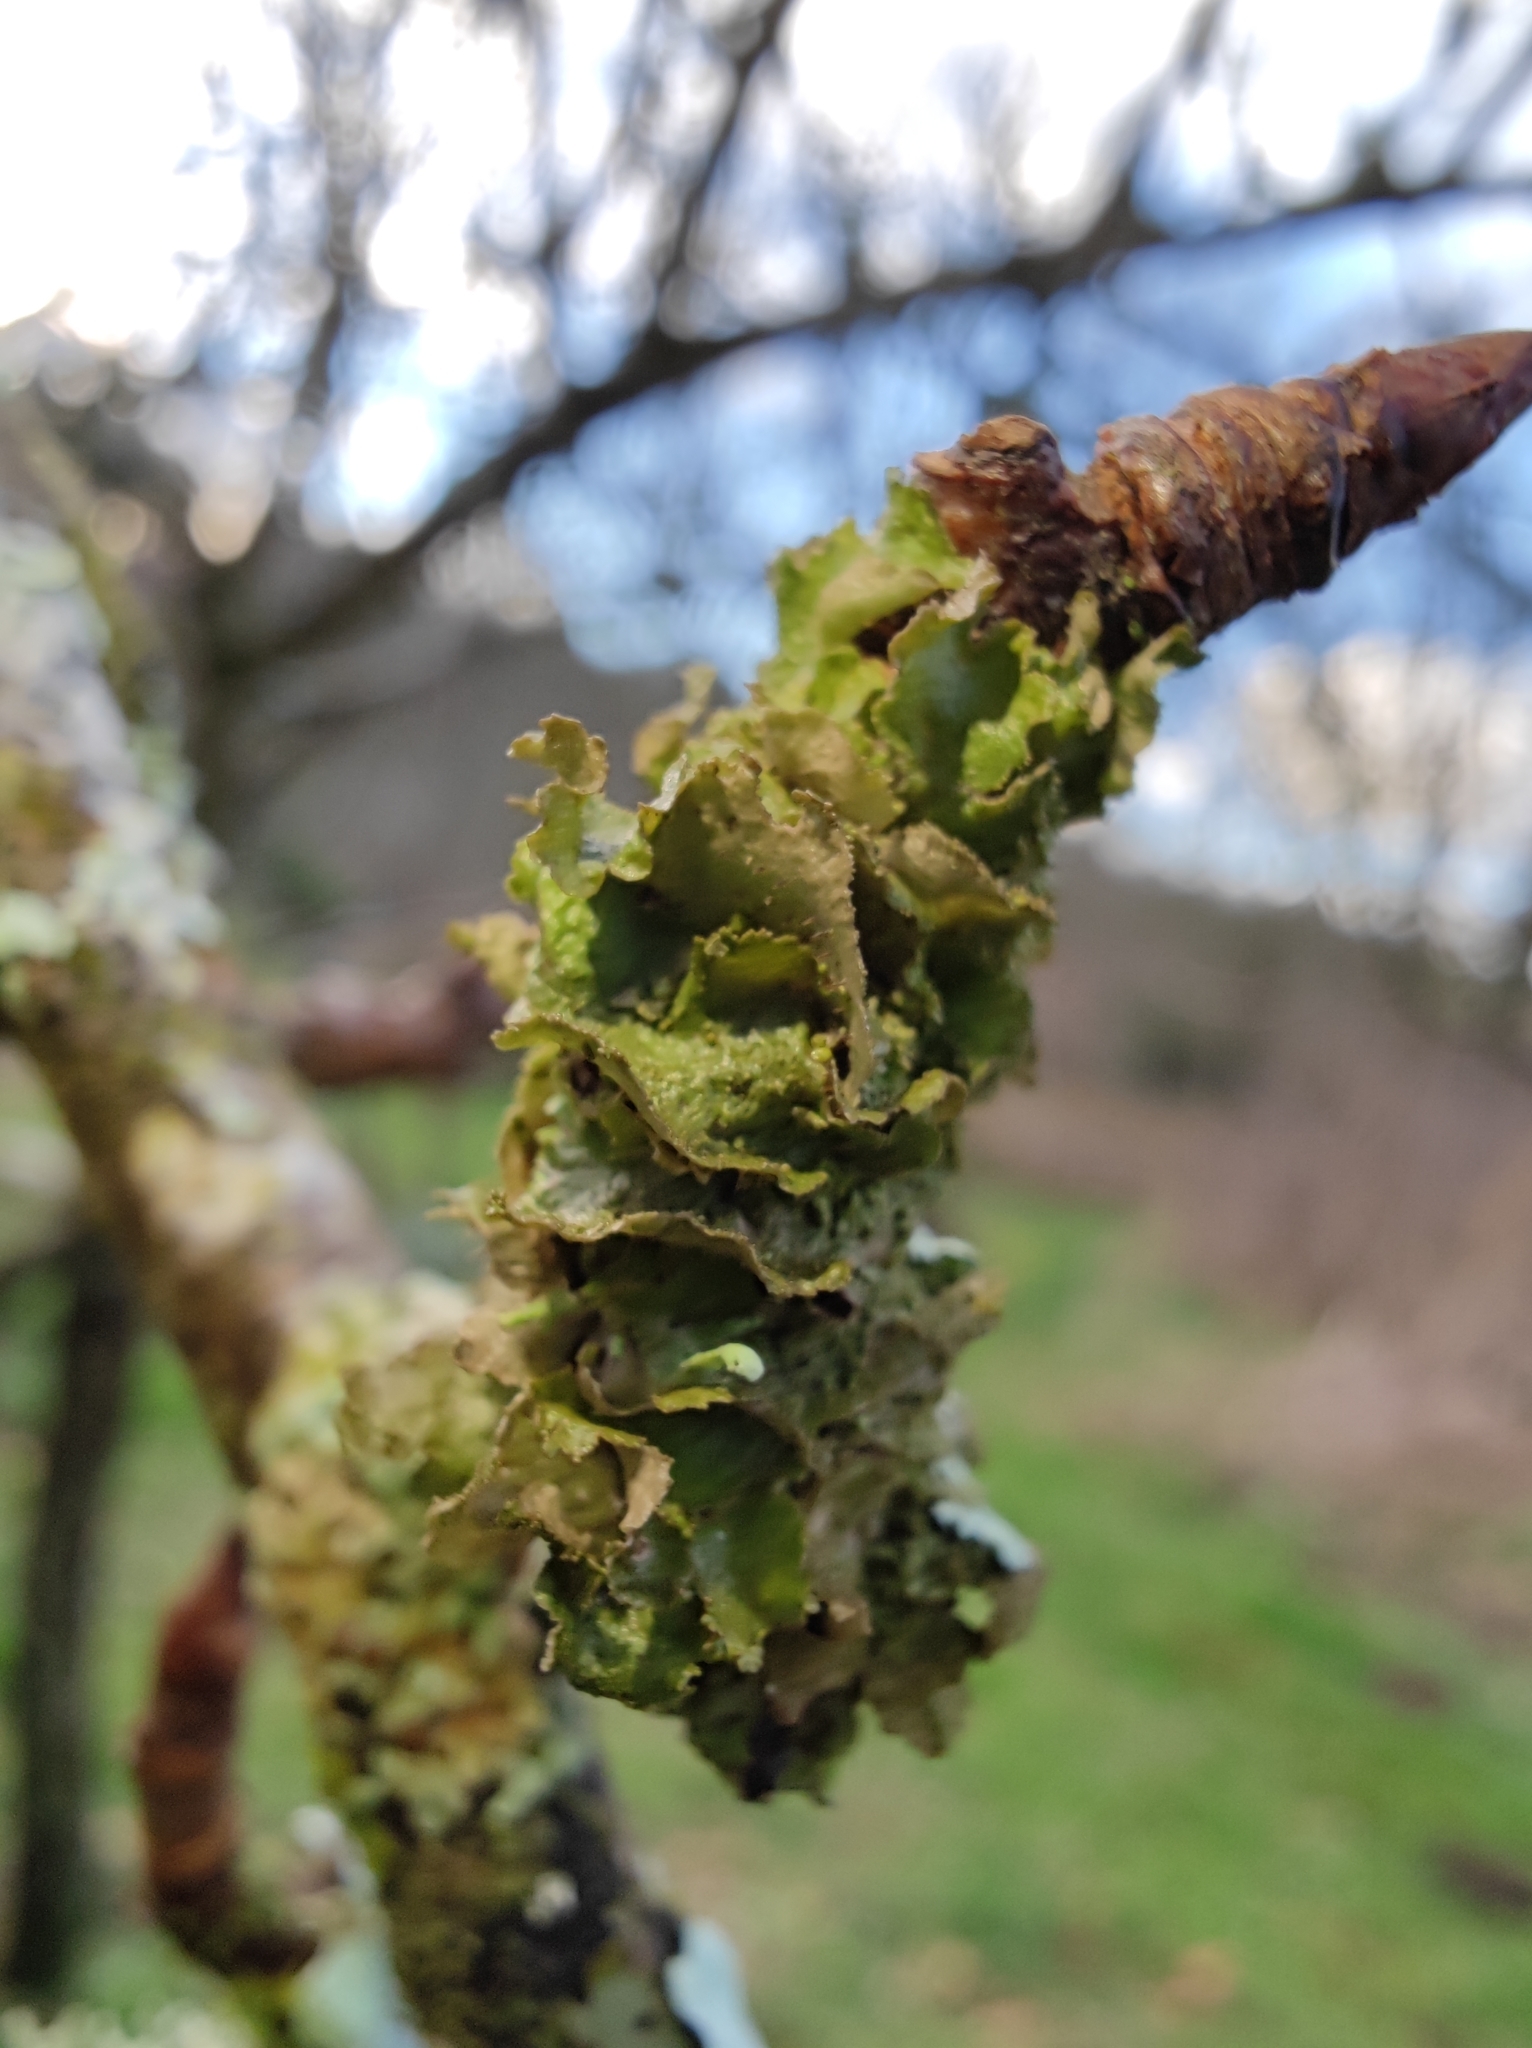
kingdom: Fungi
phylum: Ascomycota
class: Lecanoromycetes
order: Lecanorales
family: Parmeliaceae
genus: Melanohalea
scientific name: Melanohalea exasperatula
